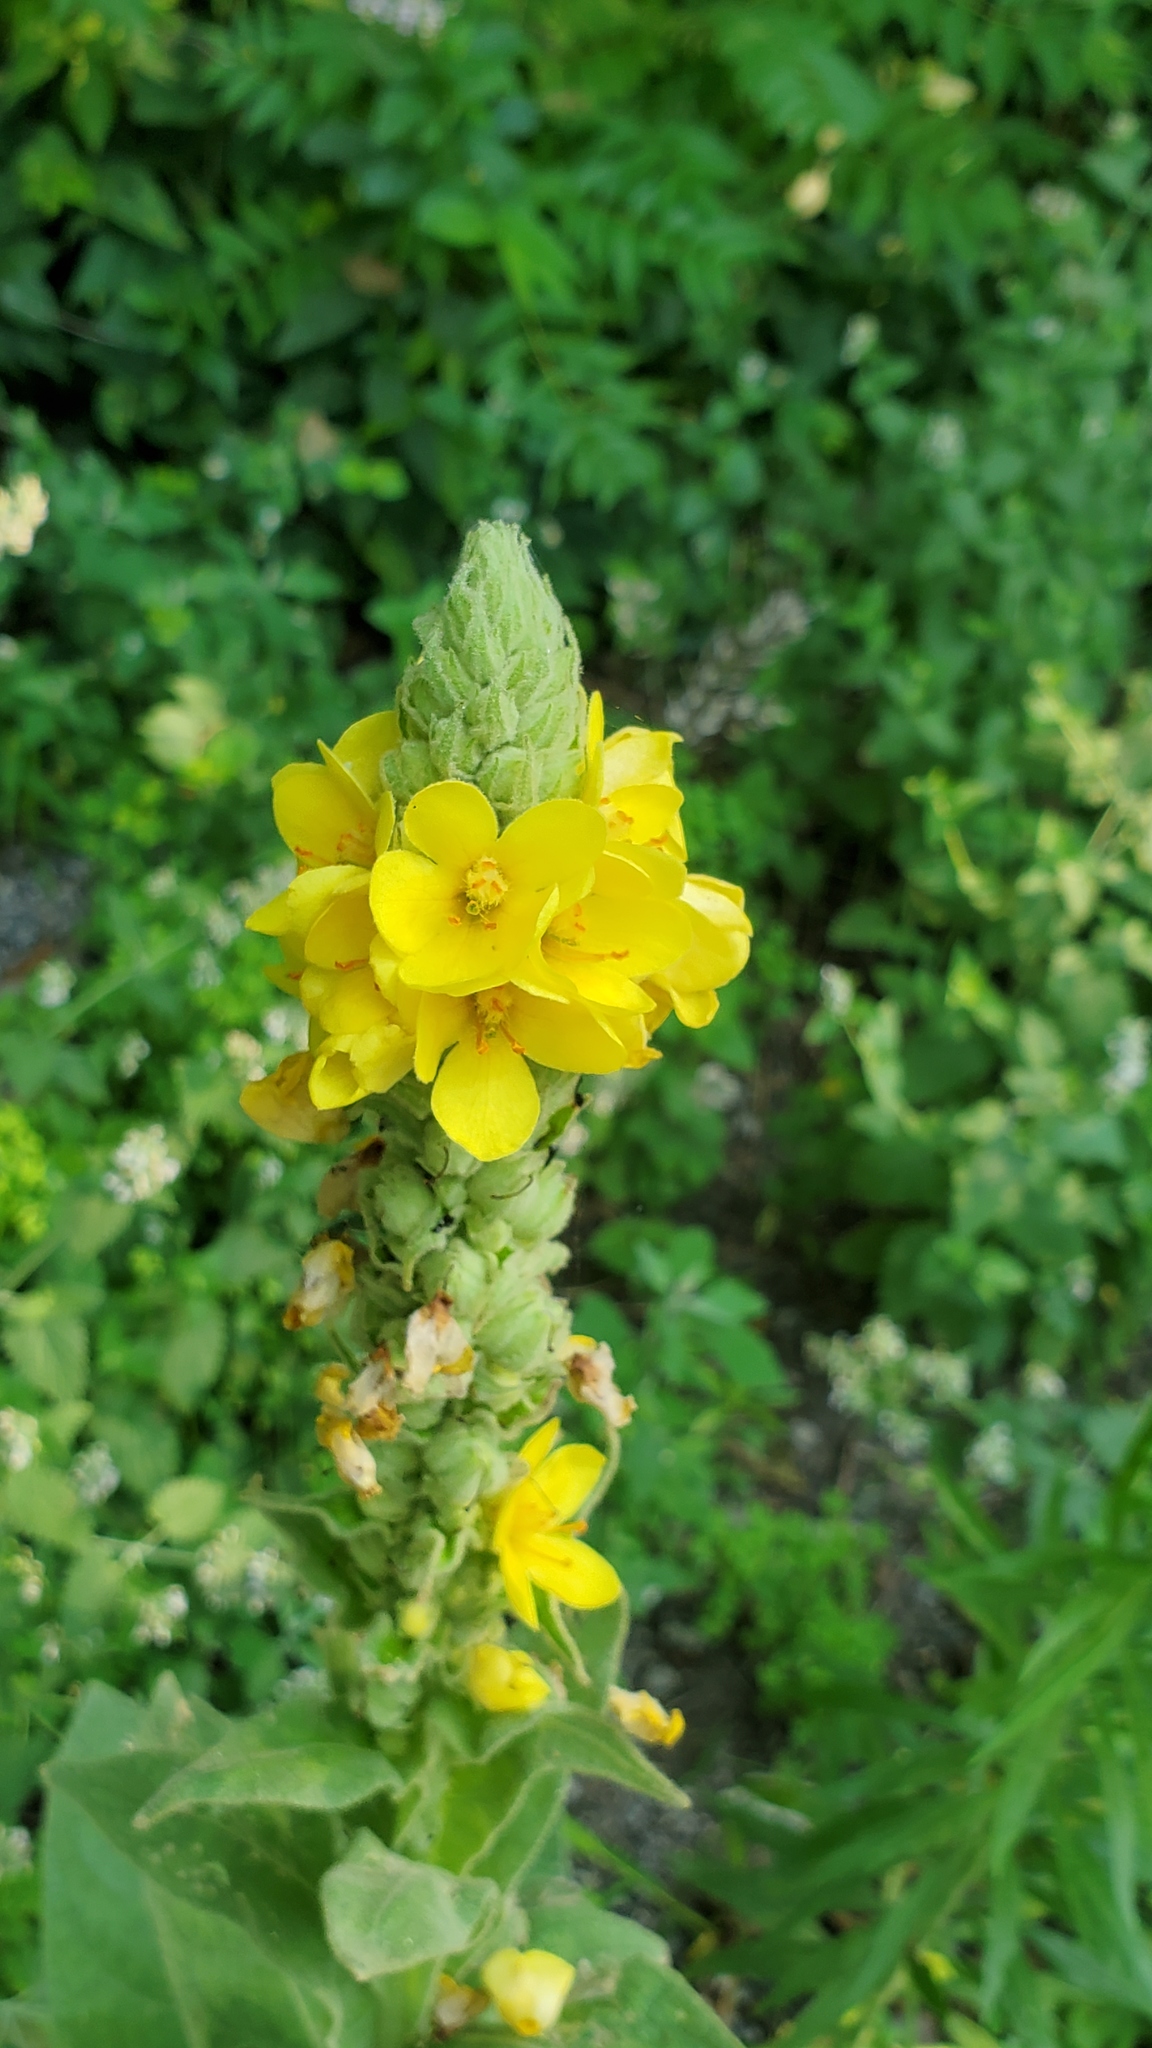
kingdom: Plantae
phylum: Tracheophyta
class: Magnoliopsida
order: Lamiales
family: Scrophulariaceae
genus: Verbascum
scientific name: Verbascum thapsus
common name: Common mullein
